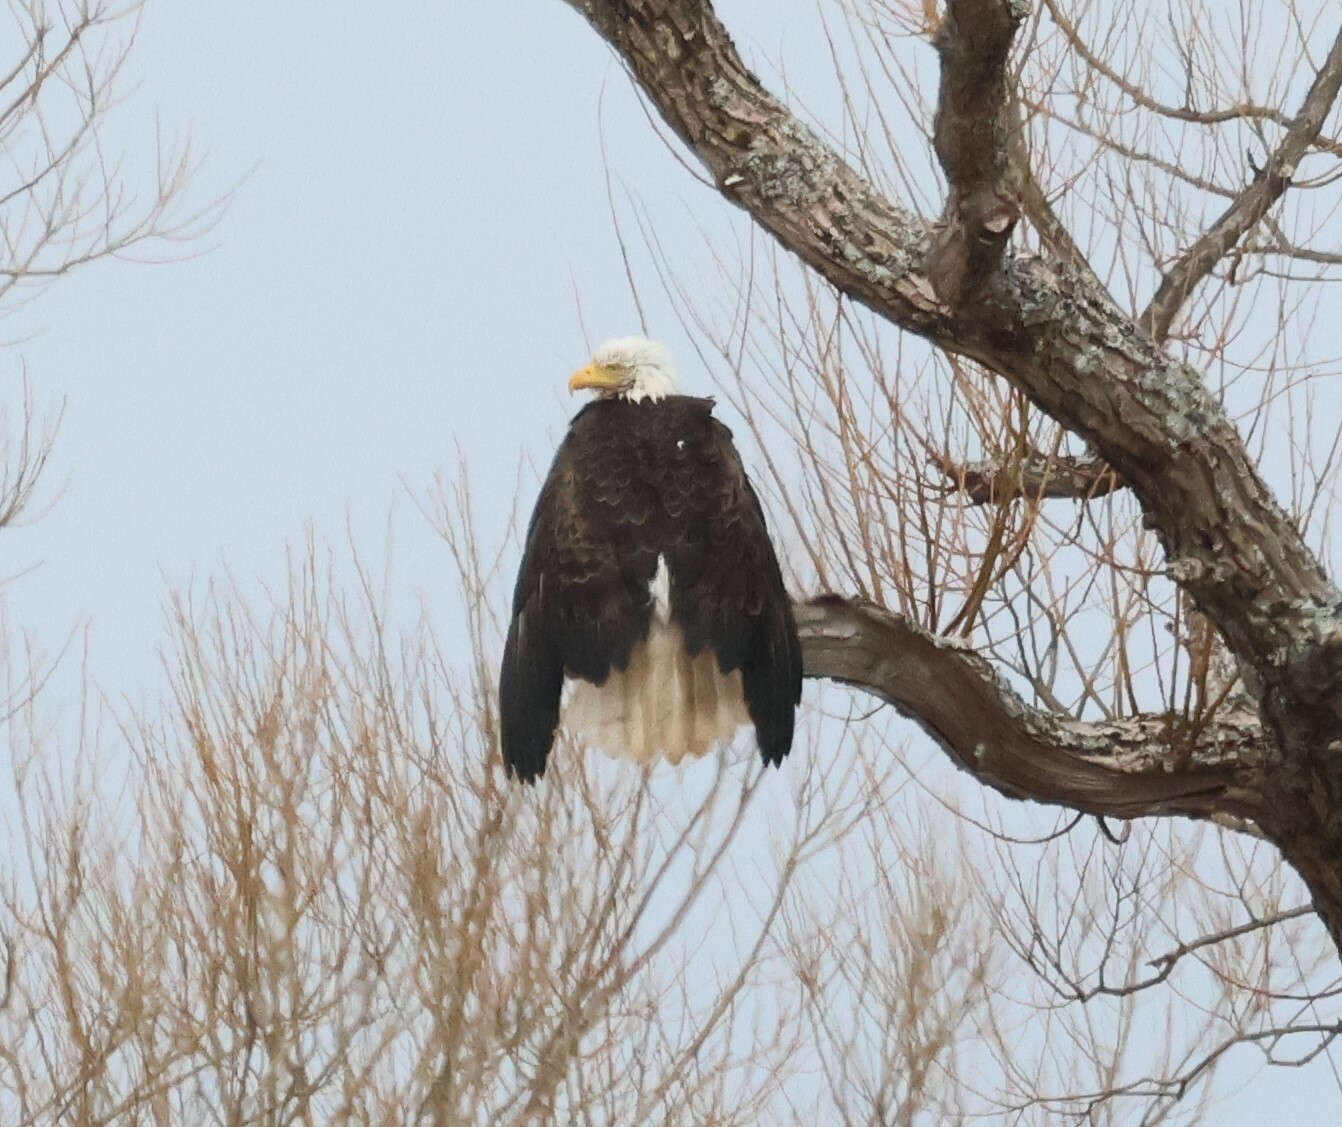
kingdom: Animalia
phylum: Chordata
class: Aves
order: Accipitriformes
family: Accipitridae
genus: Haliaeetus
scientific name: Haliaeetus leucocephalus
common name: Bald eagle
